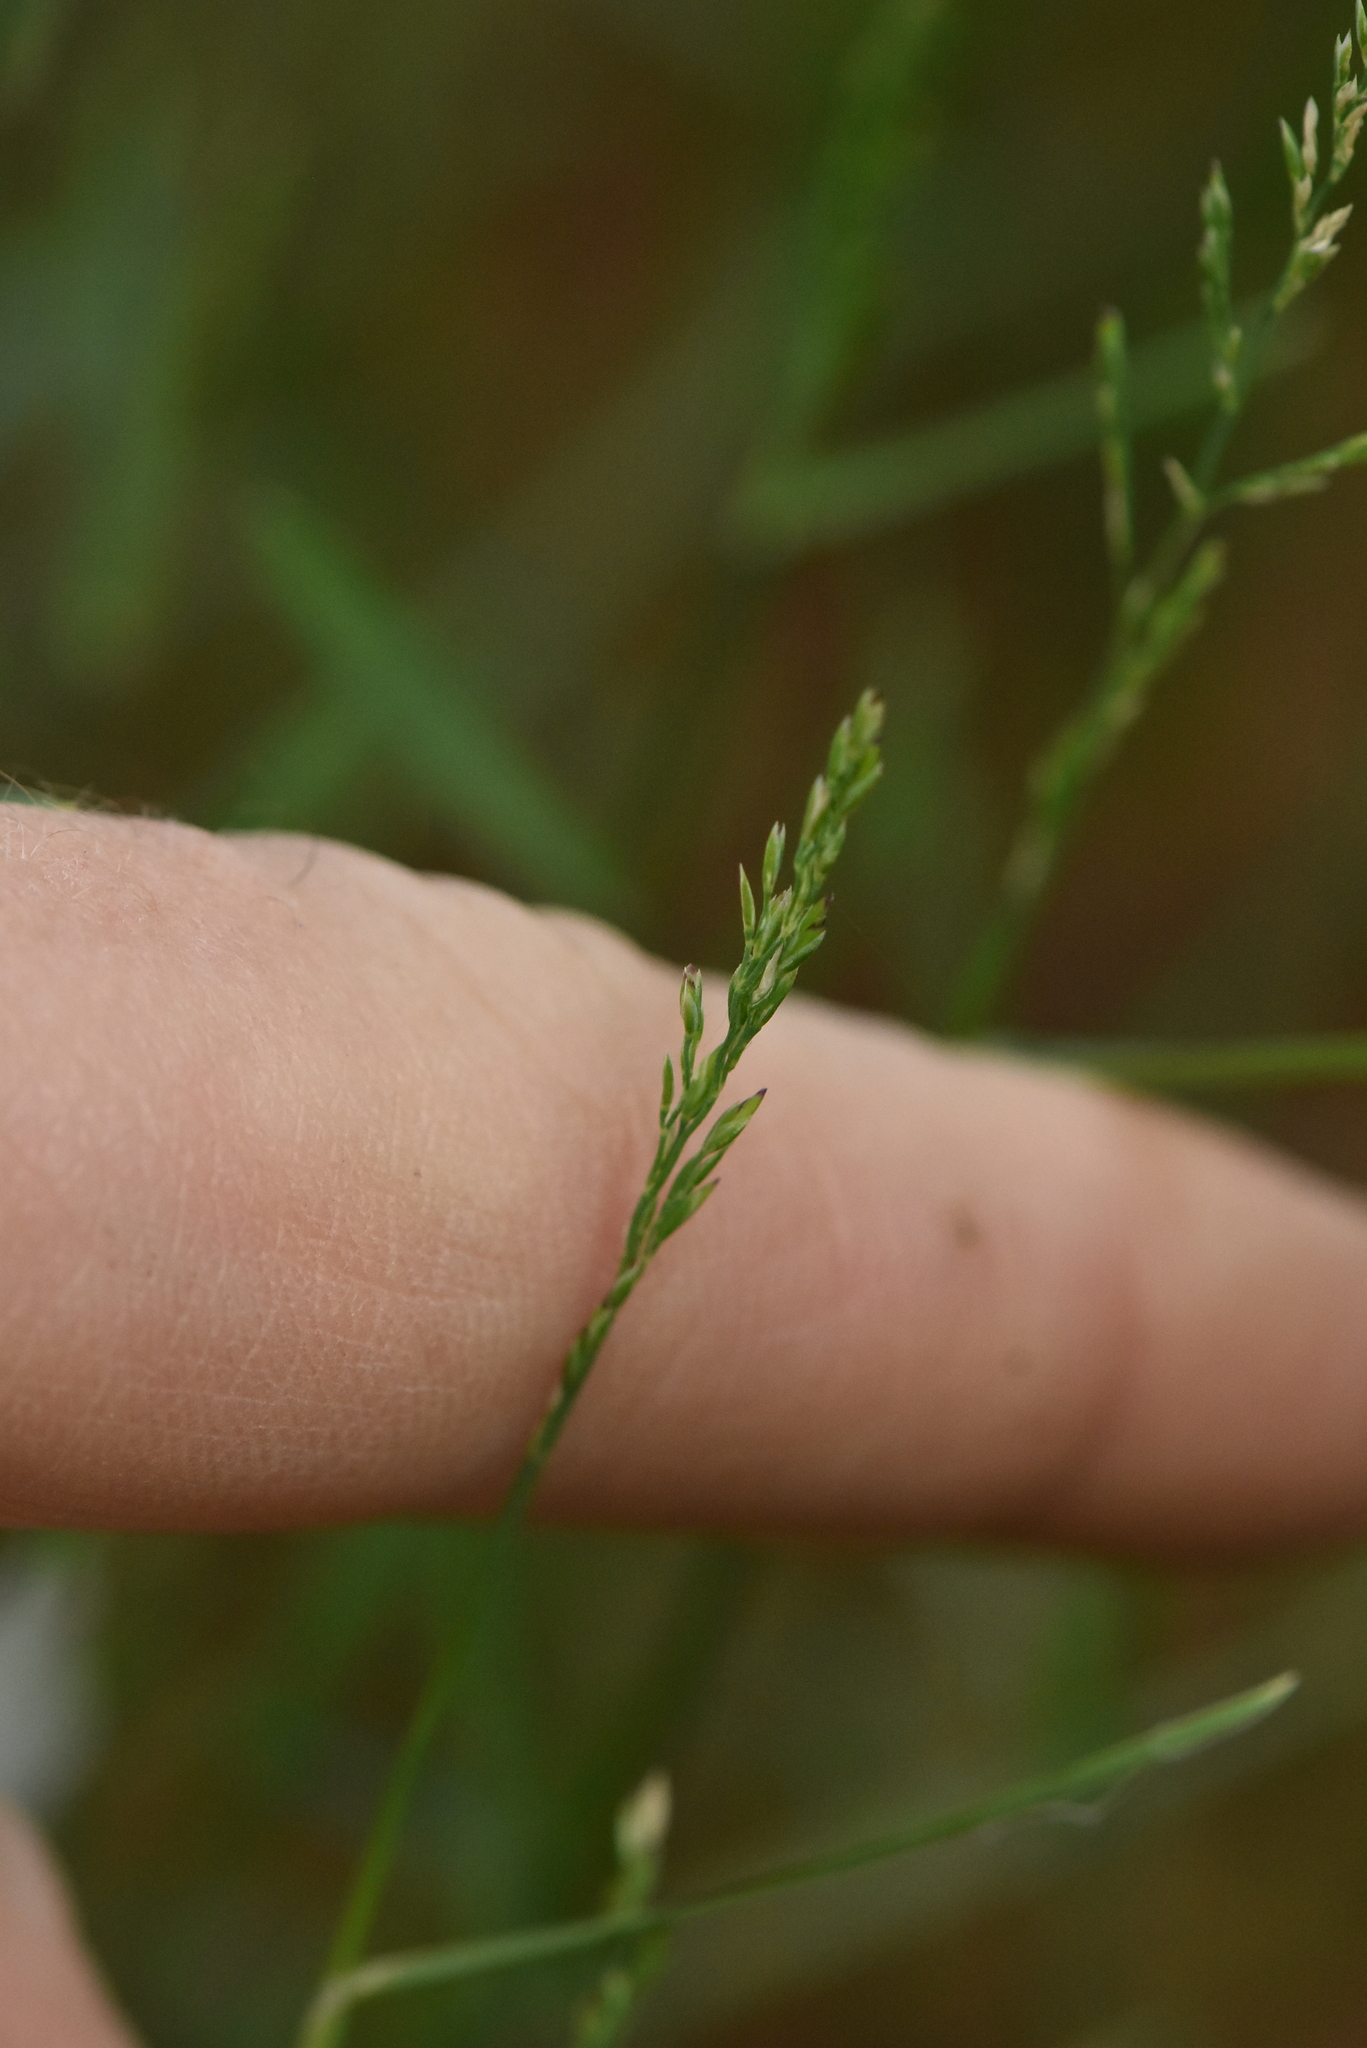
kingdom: Plantae
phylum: Tracheophyta
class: Liliopsida
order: Poales
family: Poaceae
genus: Poa
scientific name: Poa compressa
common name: Canada bluegrass
